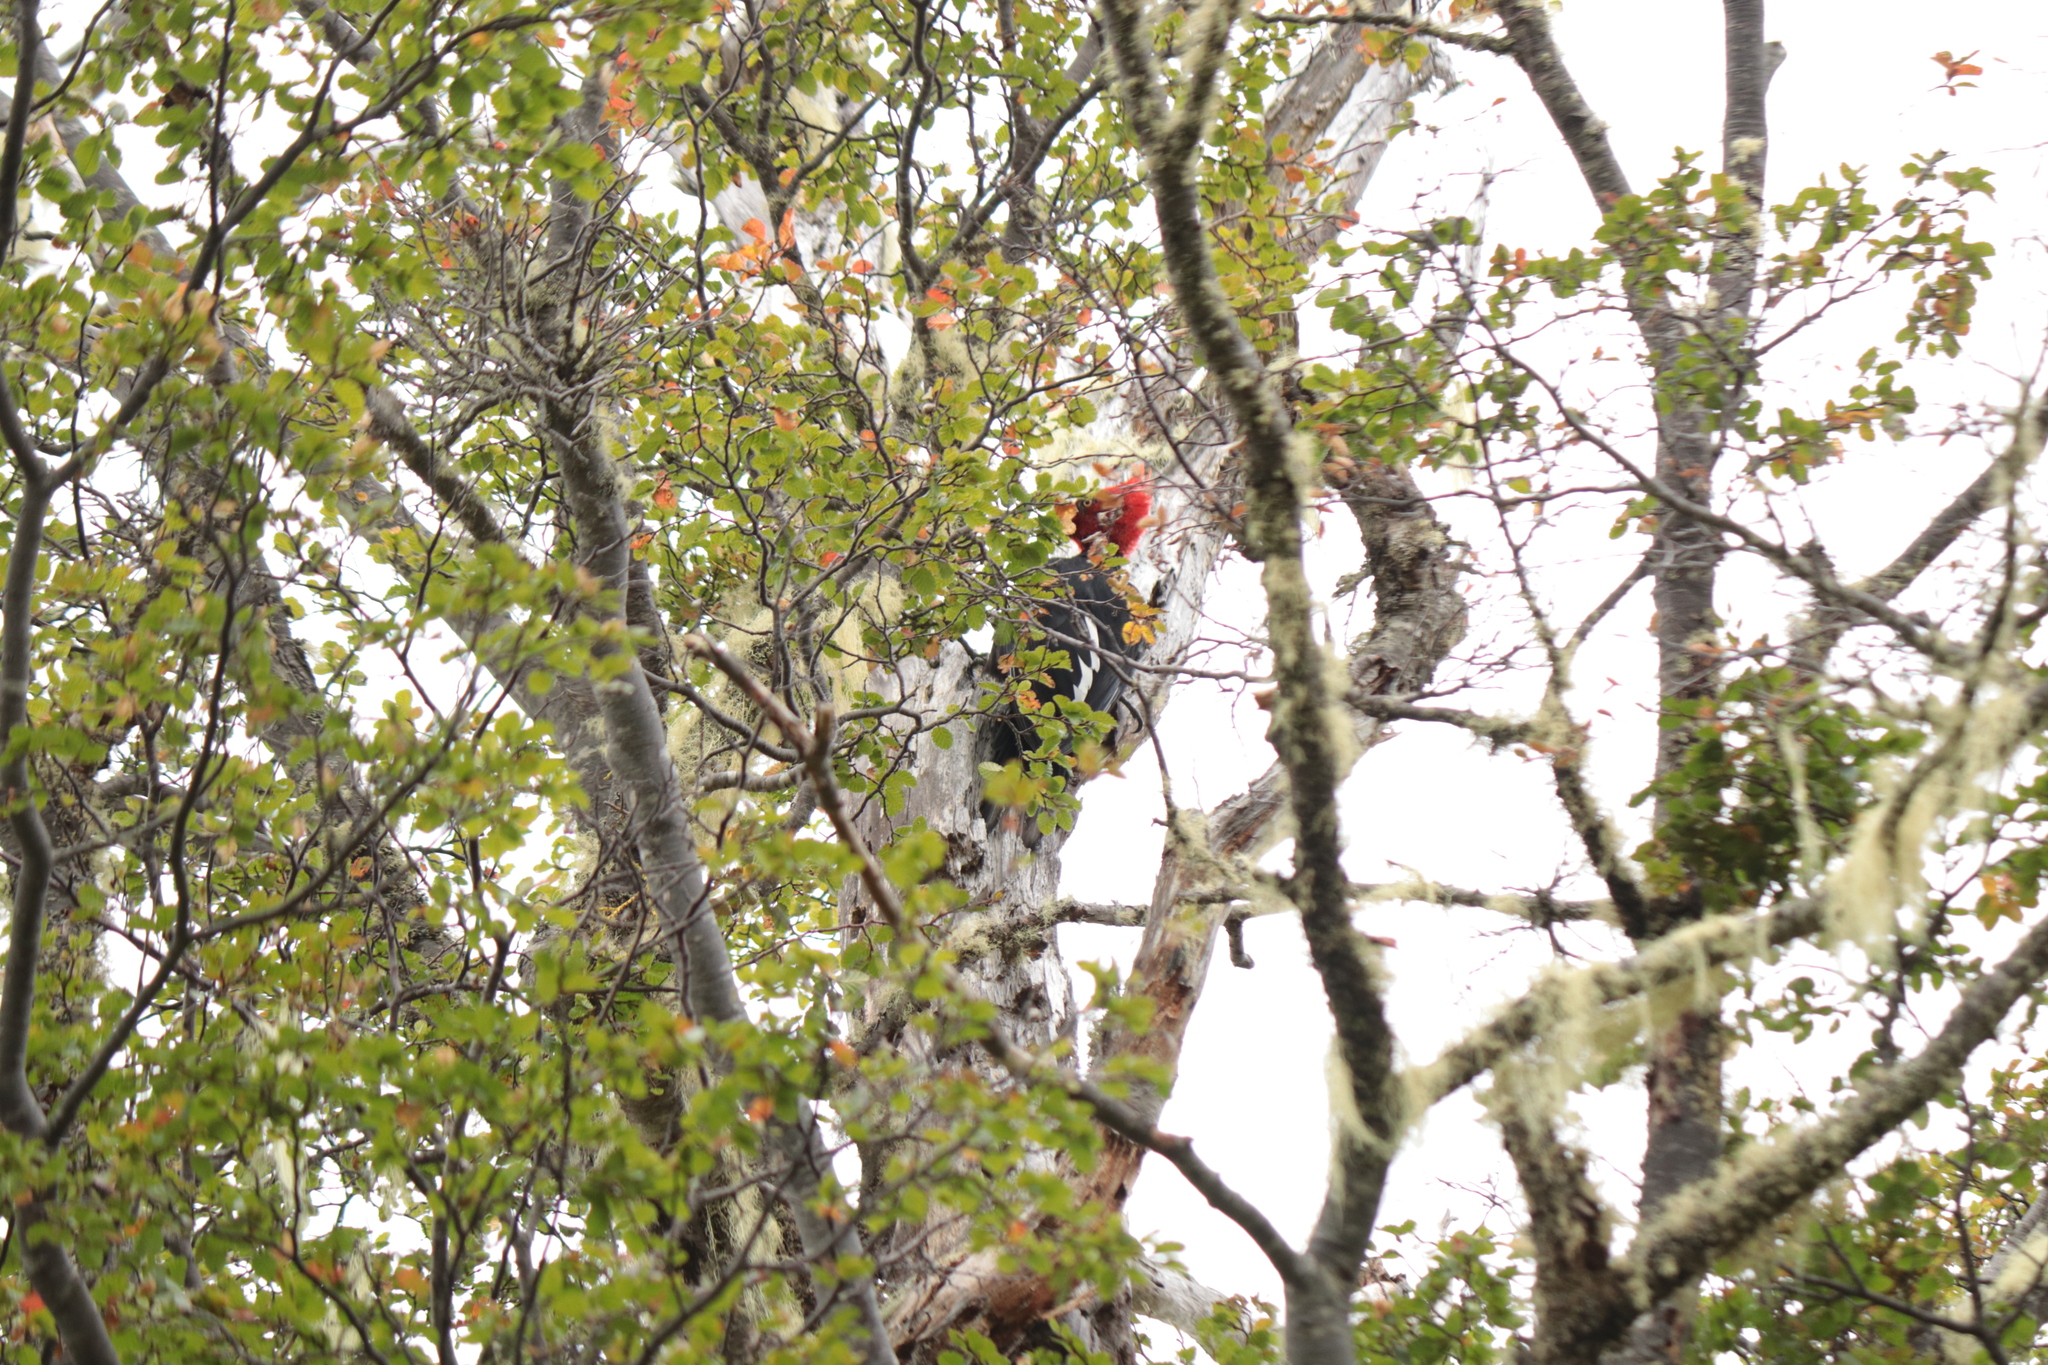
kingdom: Animalia
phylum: Chordata
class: Aves
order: Piciformes
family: Picidae
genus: Campephilus
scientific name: Campephilus magellanicus
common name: Magellanic woodpecker
